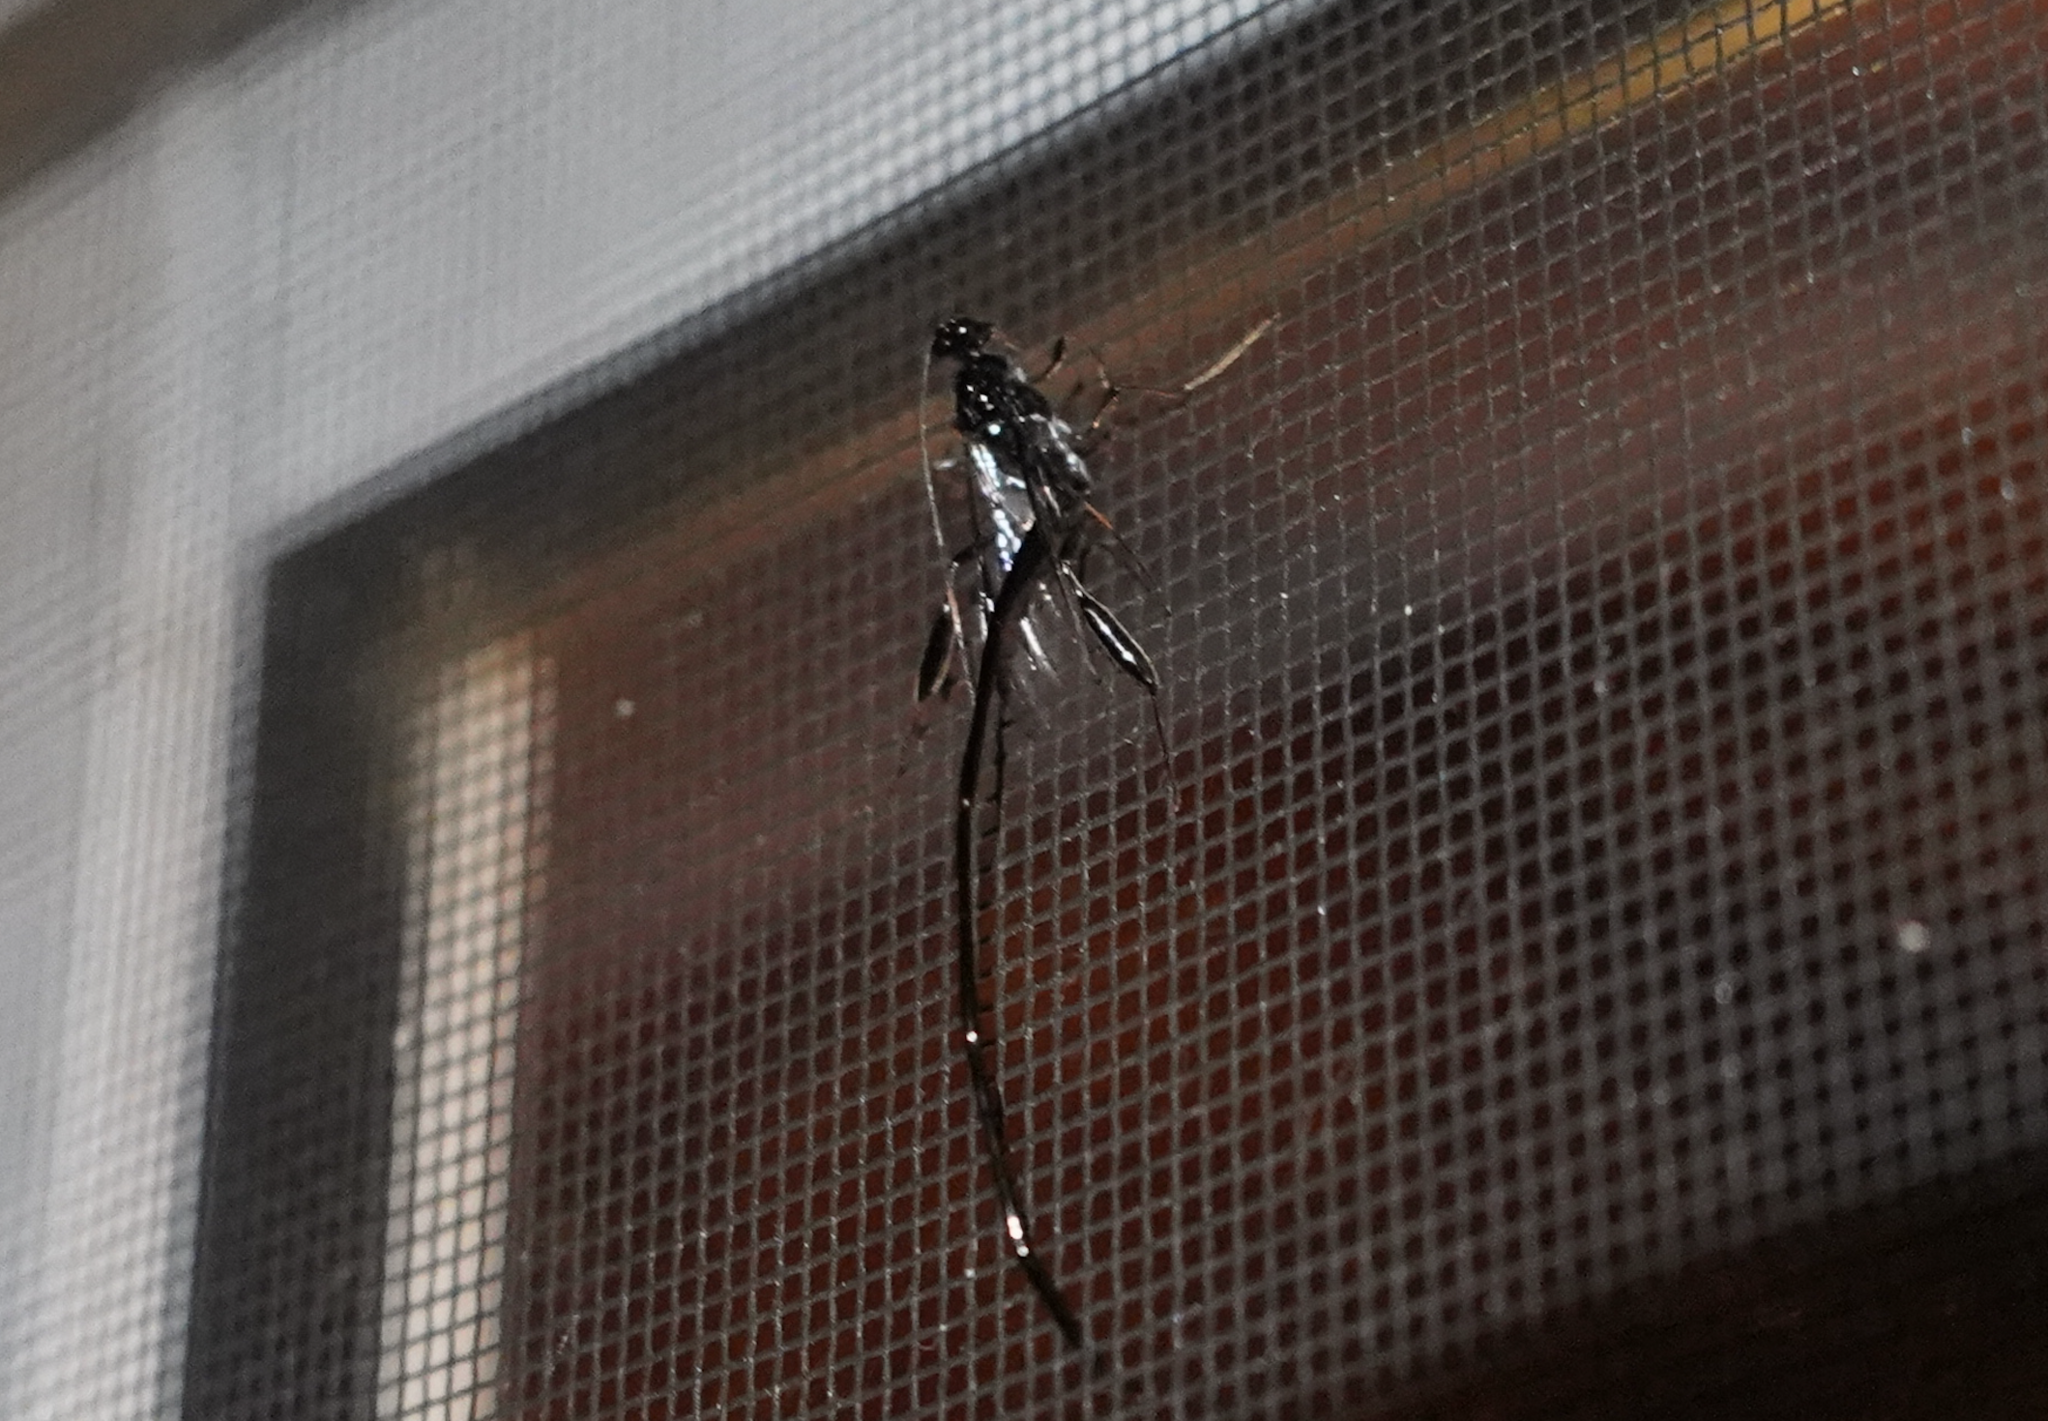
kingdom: Animalia
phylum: Arthropoda
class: Insecta
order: Hymenoptera
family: Pelecinidae
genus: Pelecinus
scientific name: Pelecinus polyturator
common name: American pelecinid wasp
